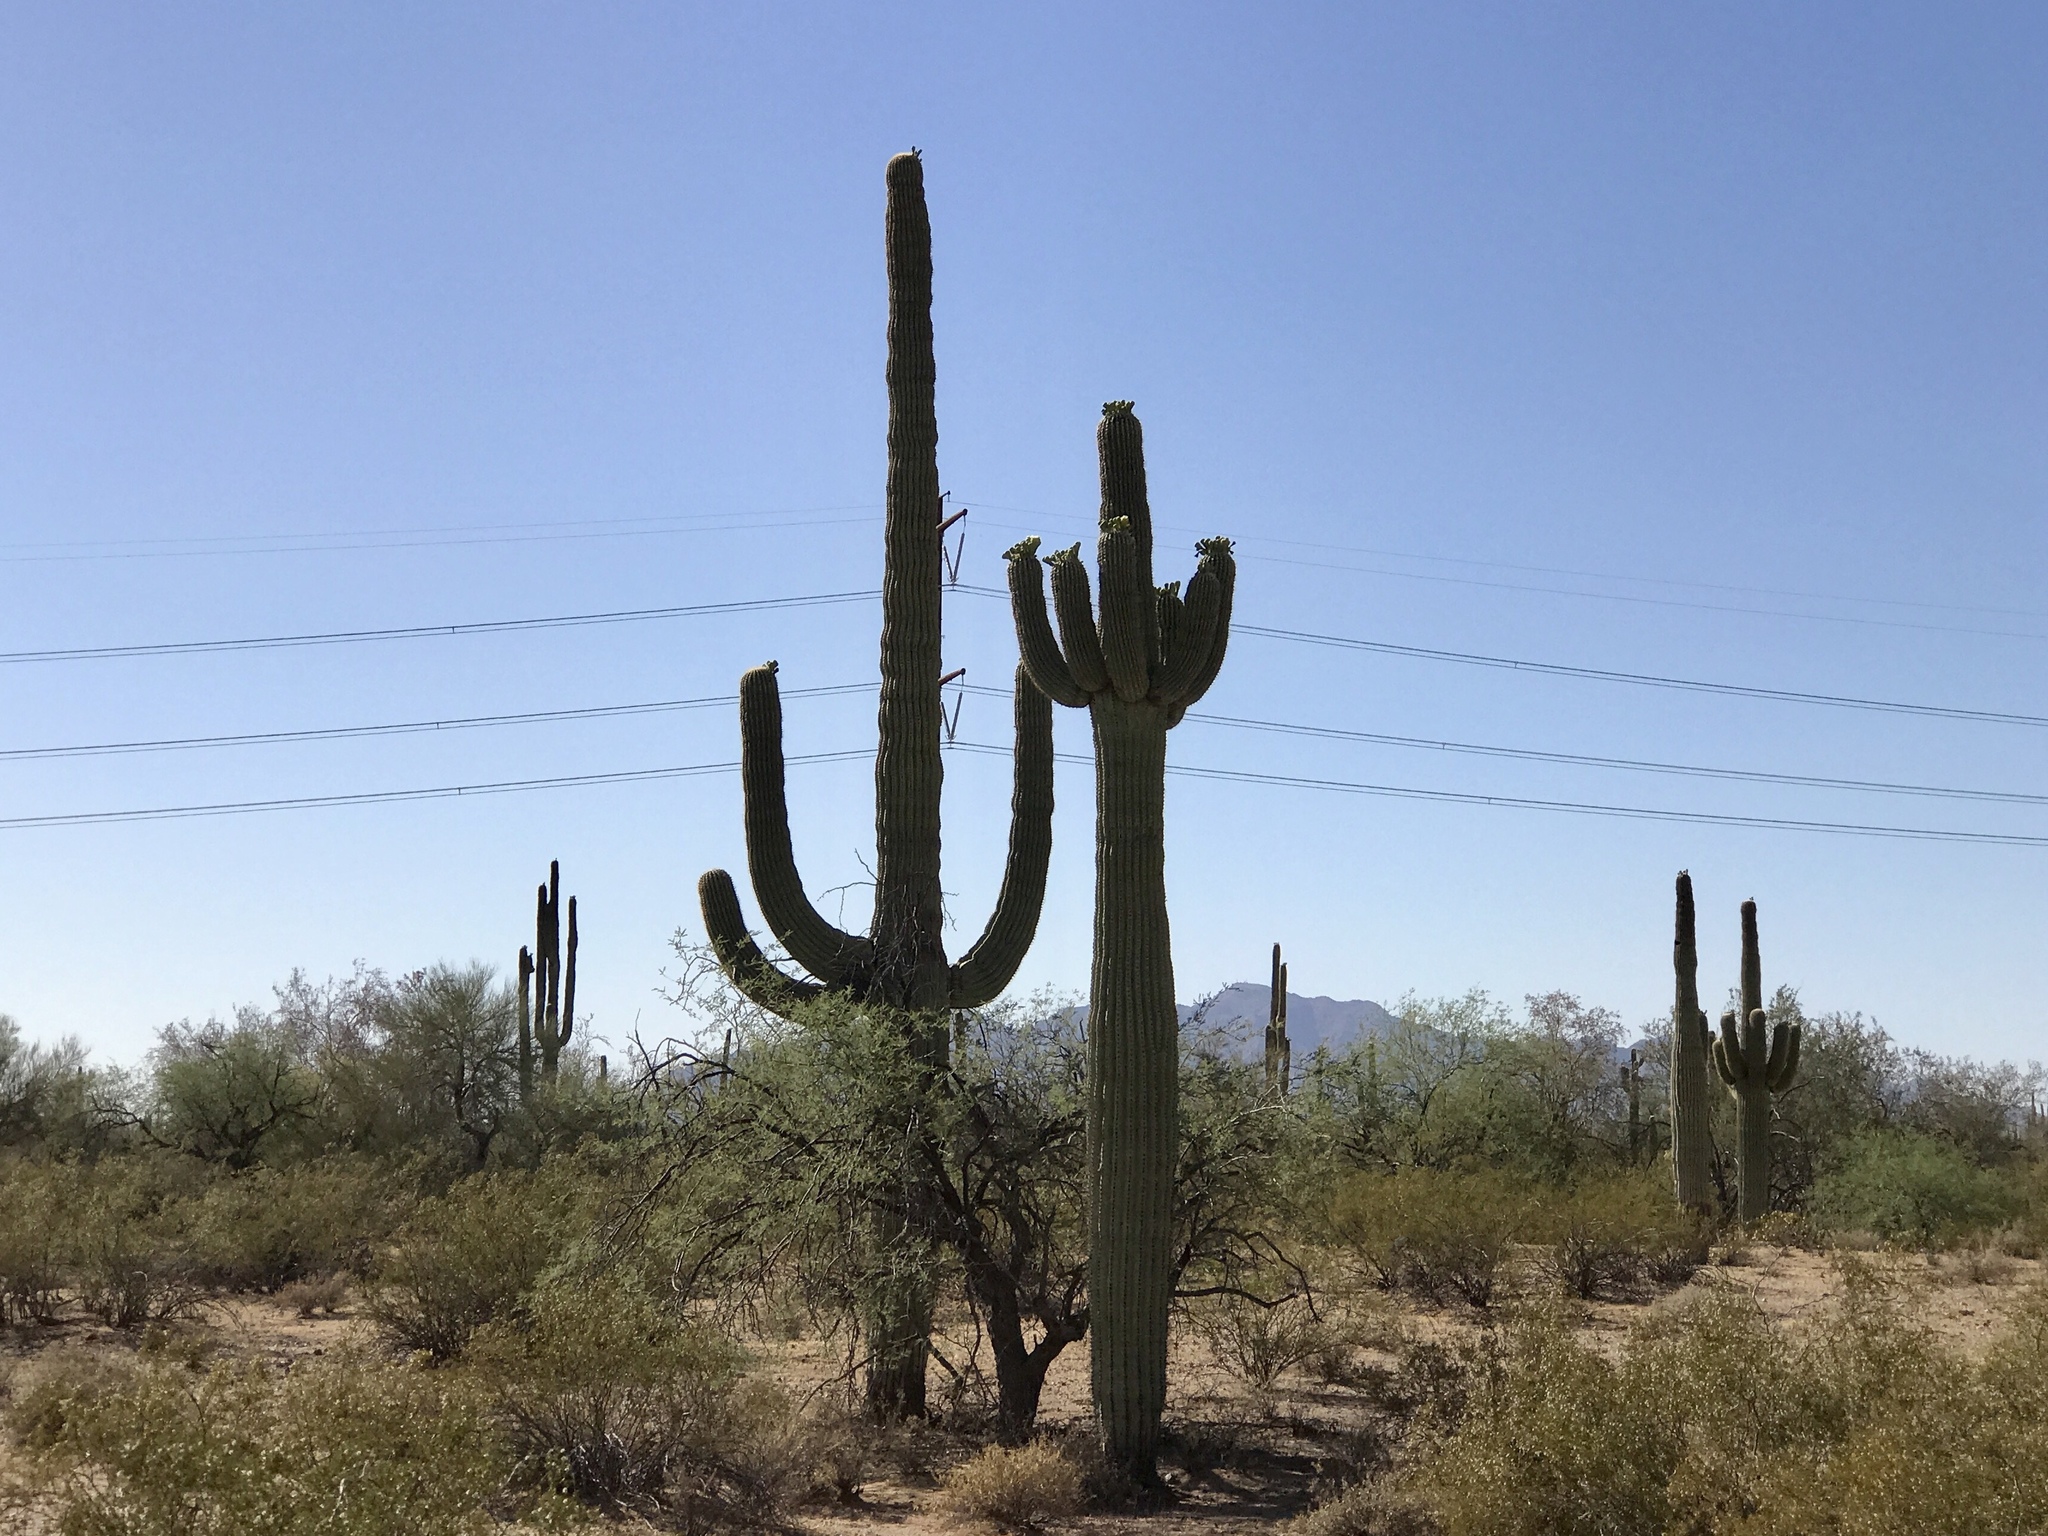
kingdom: Plantae
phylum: Tracheophyta
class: Magnoliopsida
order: Caryophyllales
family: Cactaceae
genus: Carnegiea
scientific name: Carnegiea gigantea
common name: Saguaro
